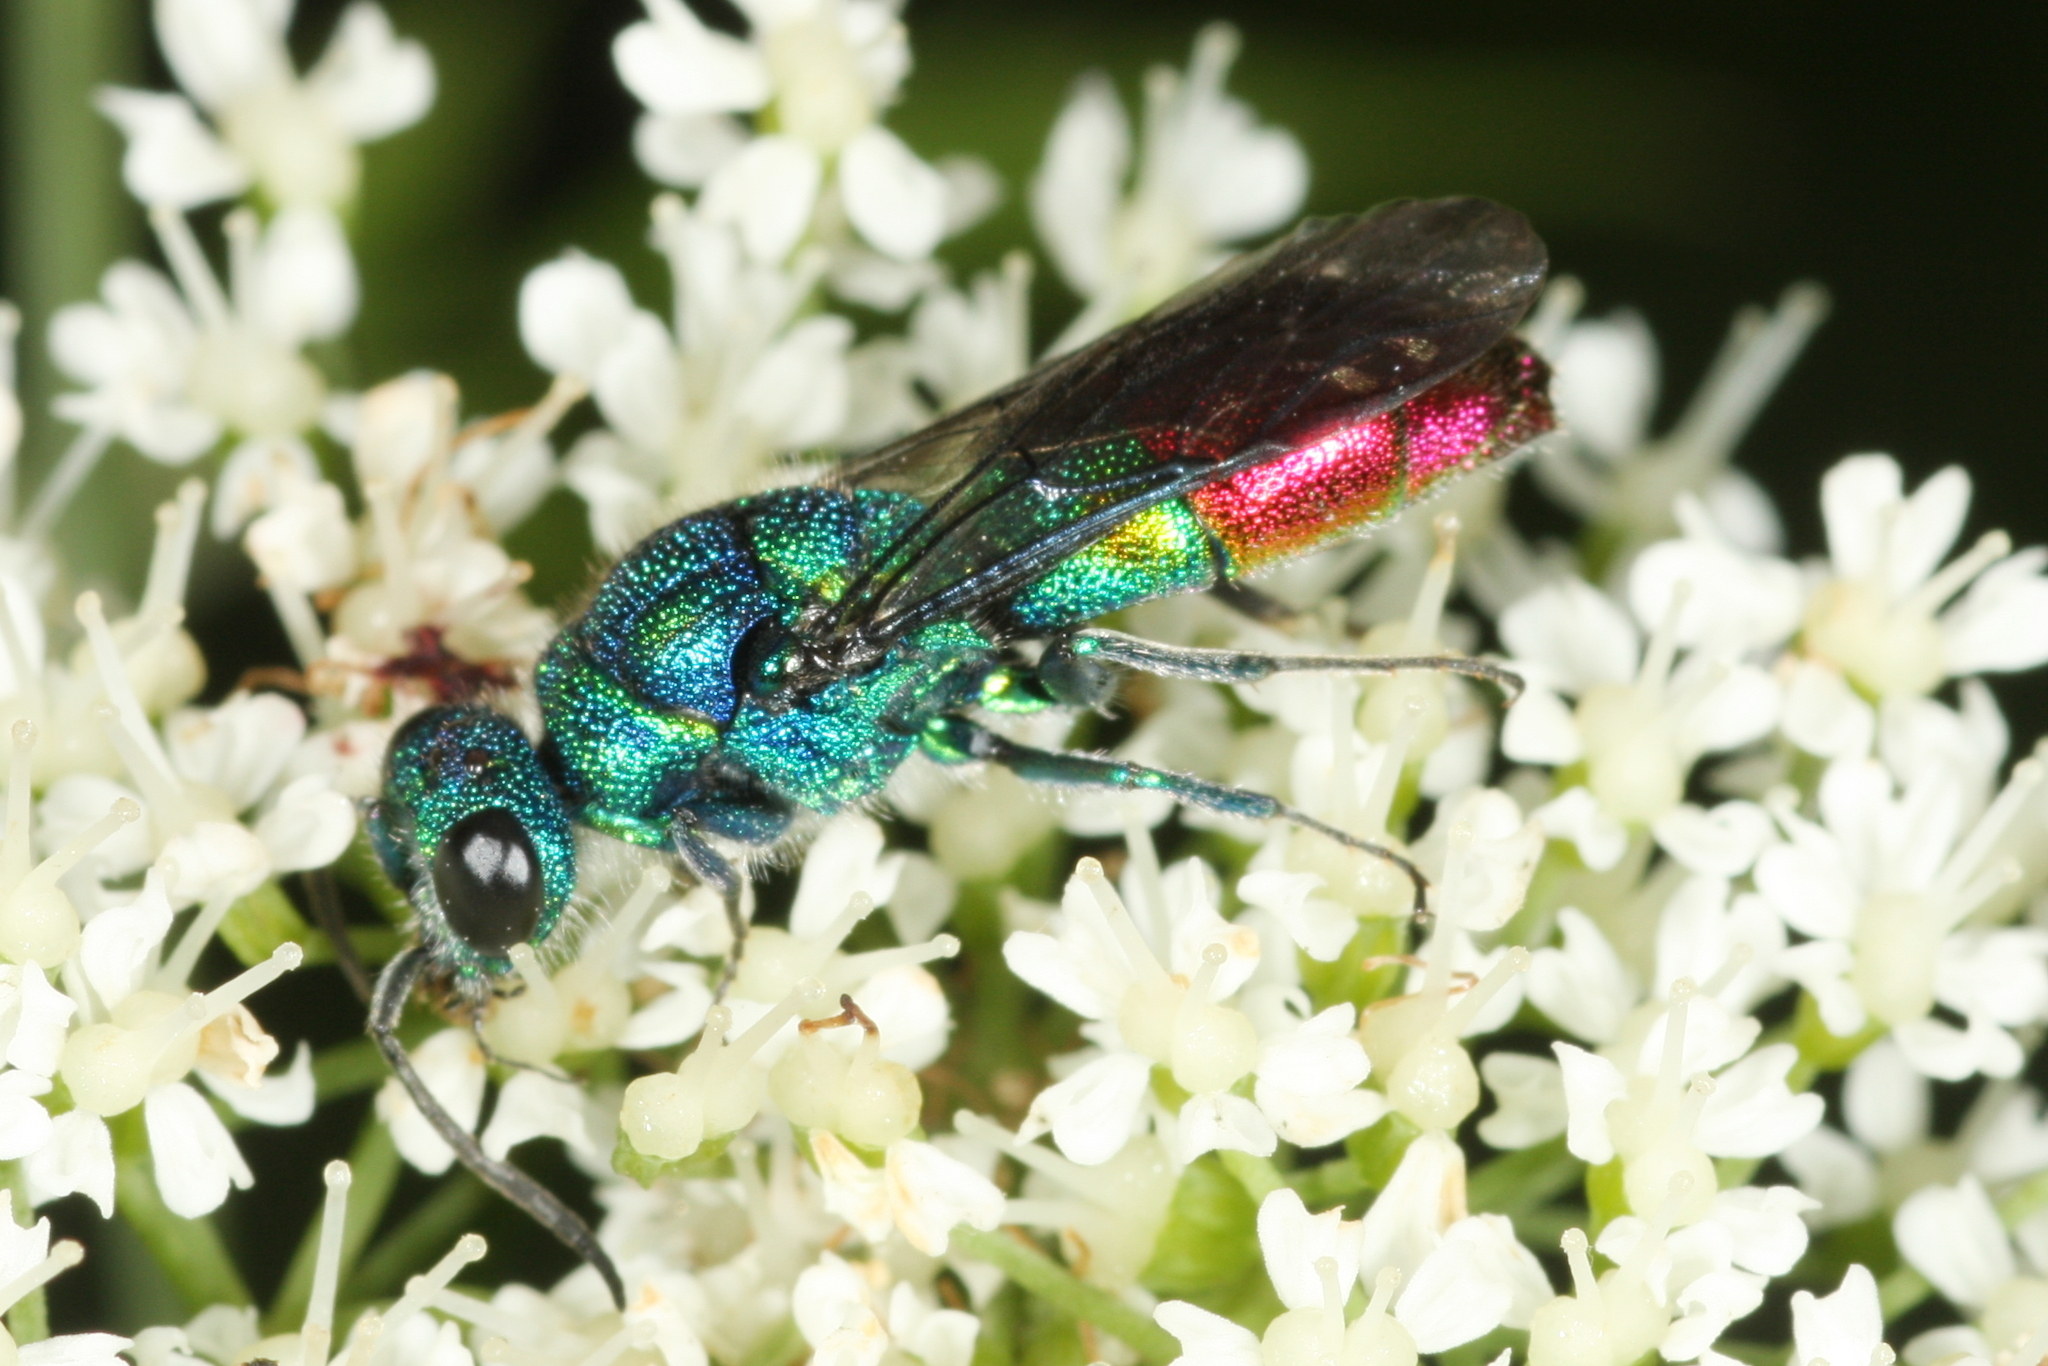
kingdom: Animalia
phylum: Arthropoda
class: Insecta
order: Hymenoptera
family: Chrysididae
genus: Chrysis
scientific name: Chrysis fulgida
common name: Shimmering ruby-tail
